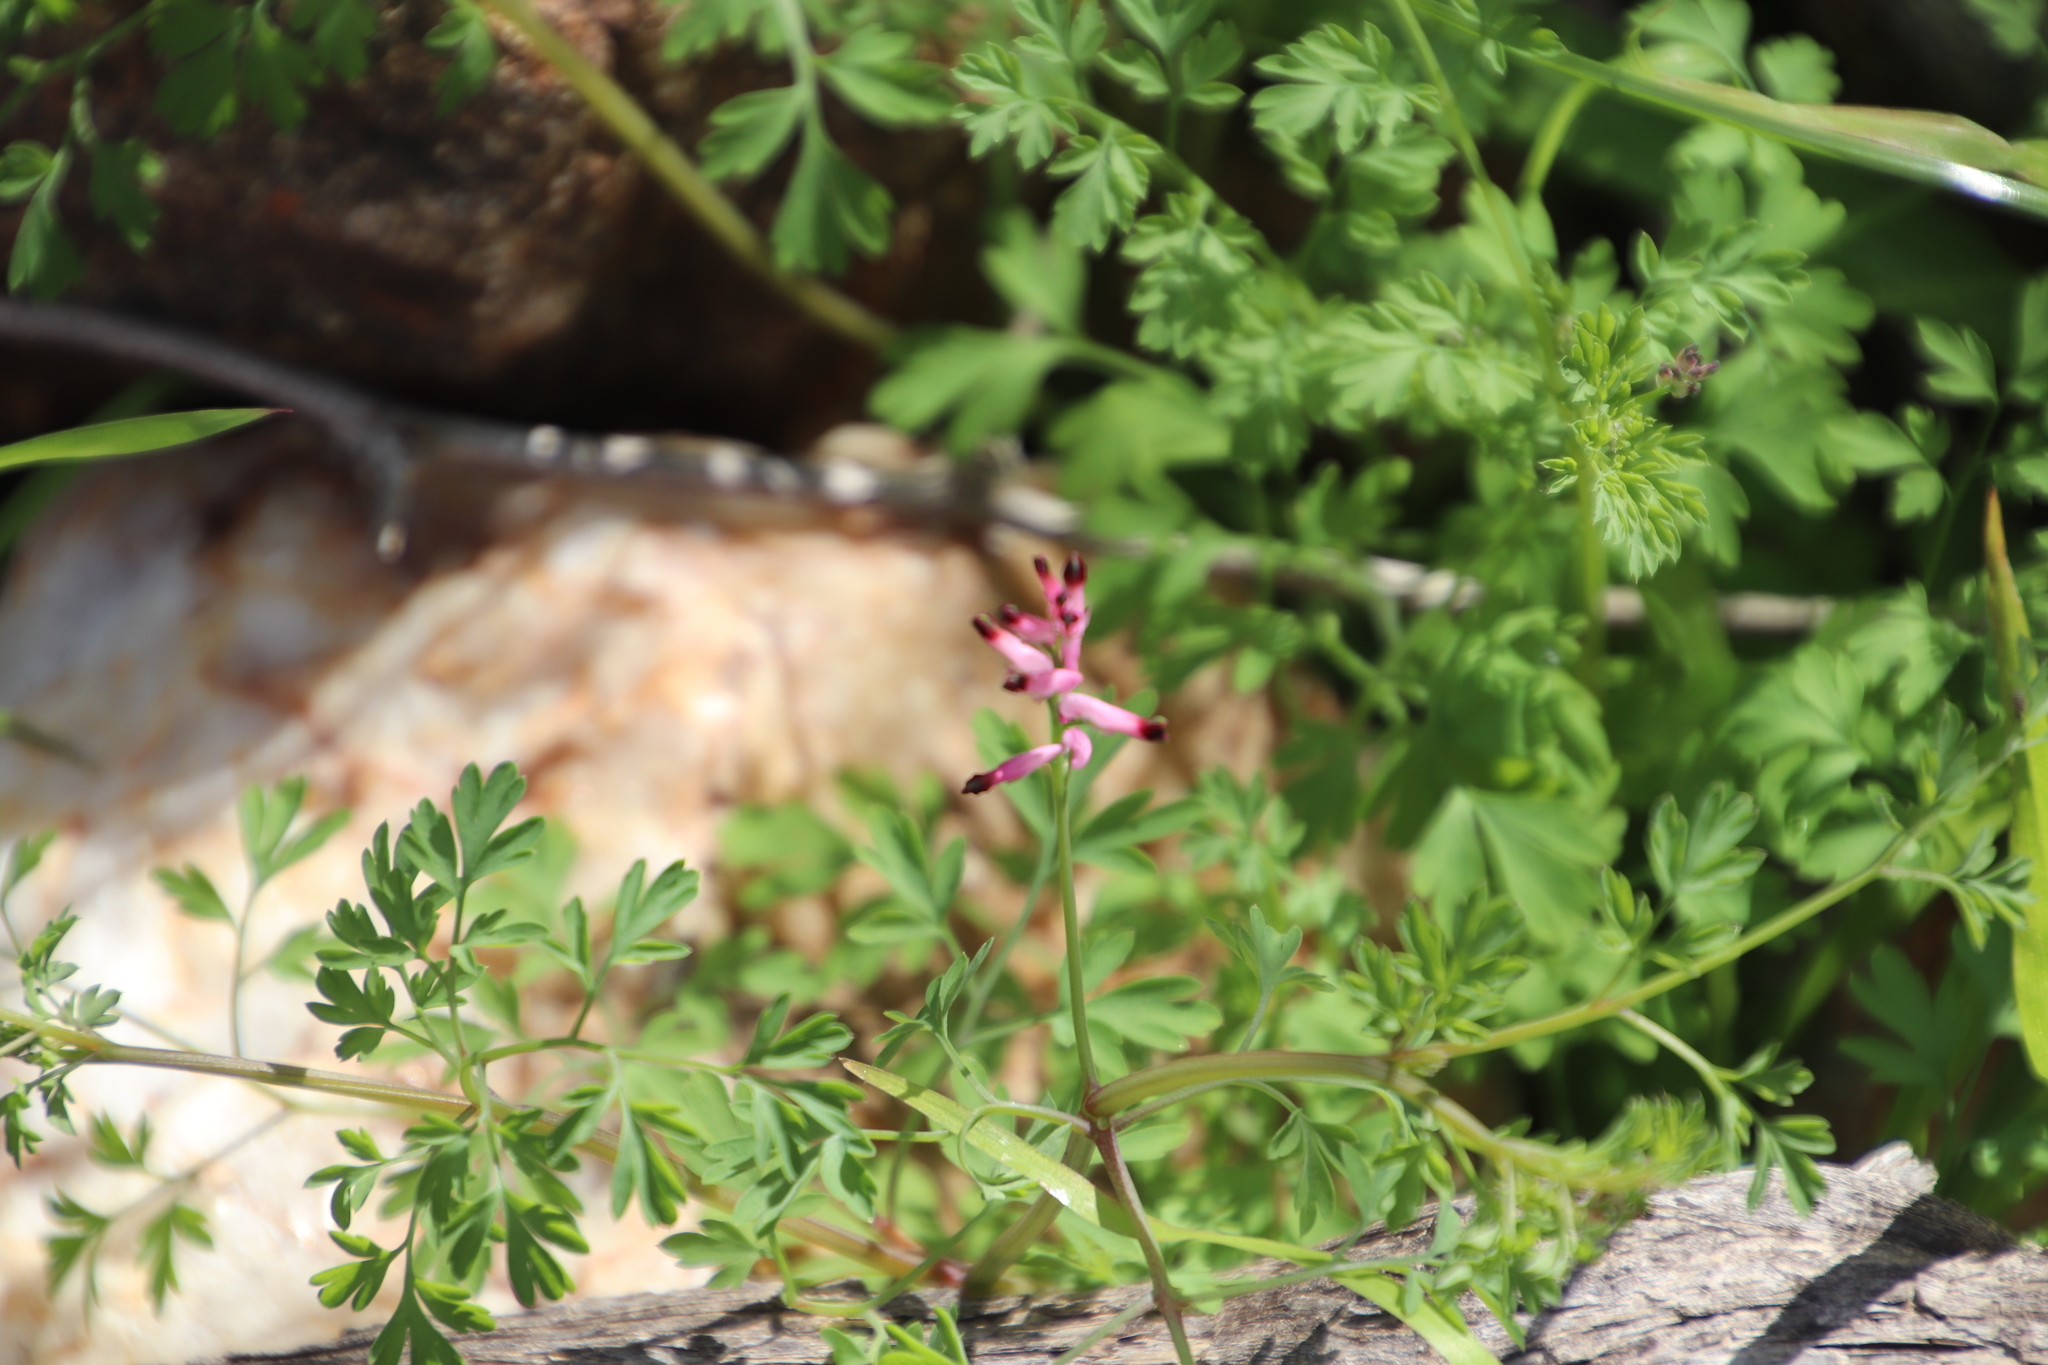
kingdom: Plantae
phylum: Tracheophyta
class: Magnoliopsida
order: Ranunculales
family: Papaveraceae
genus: Fumaria
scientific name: Fumaria muralis
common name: Common ramping-fumitory
